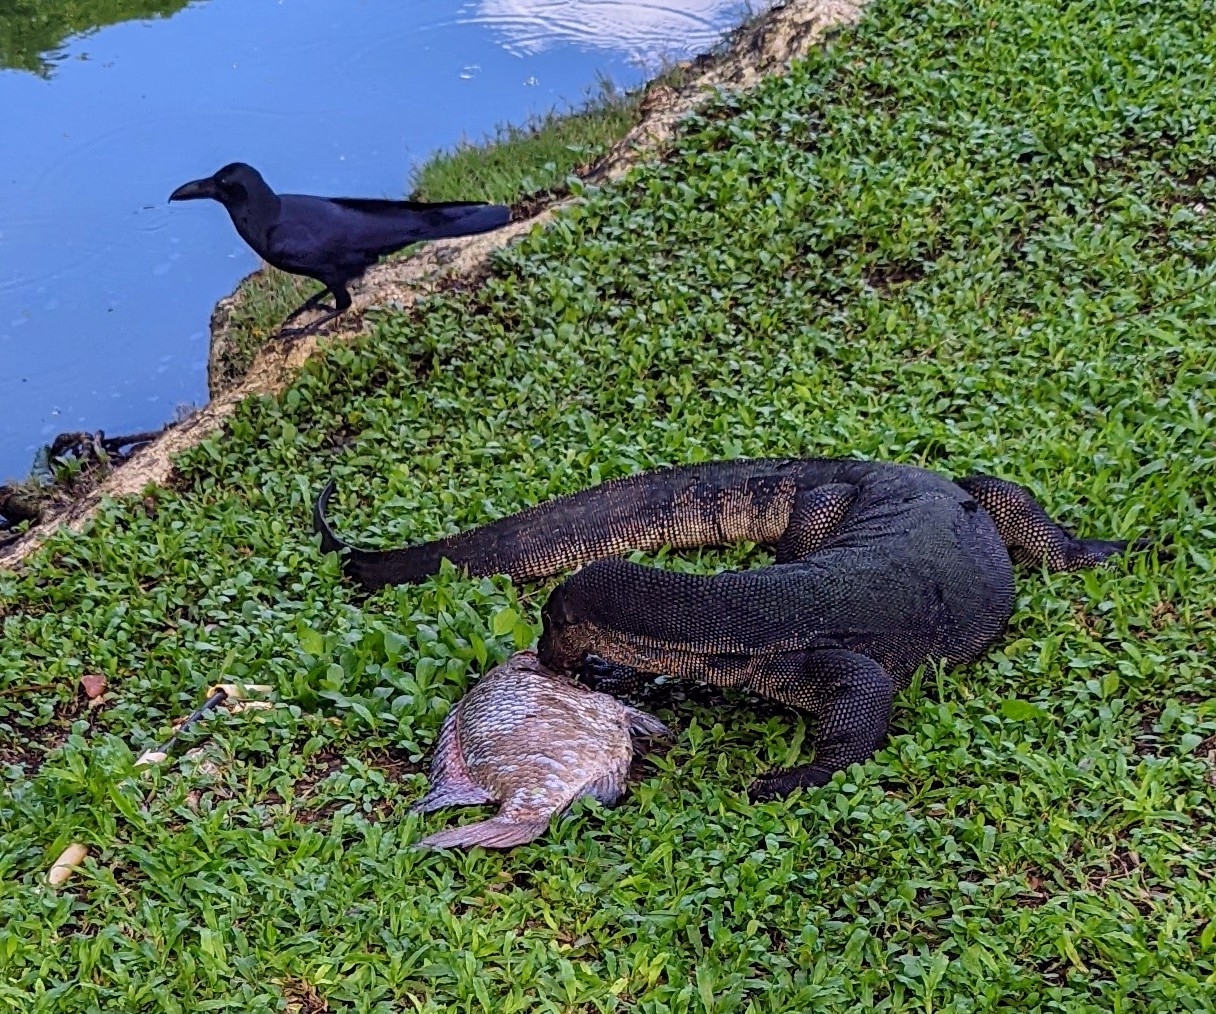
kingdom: Animalia
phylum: Chordata
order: Perciformes
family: Cichlidae
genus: Oreochromis
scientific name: Oreochromis niloticus
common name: Nile tilapia
